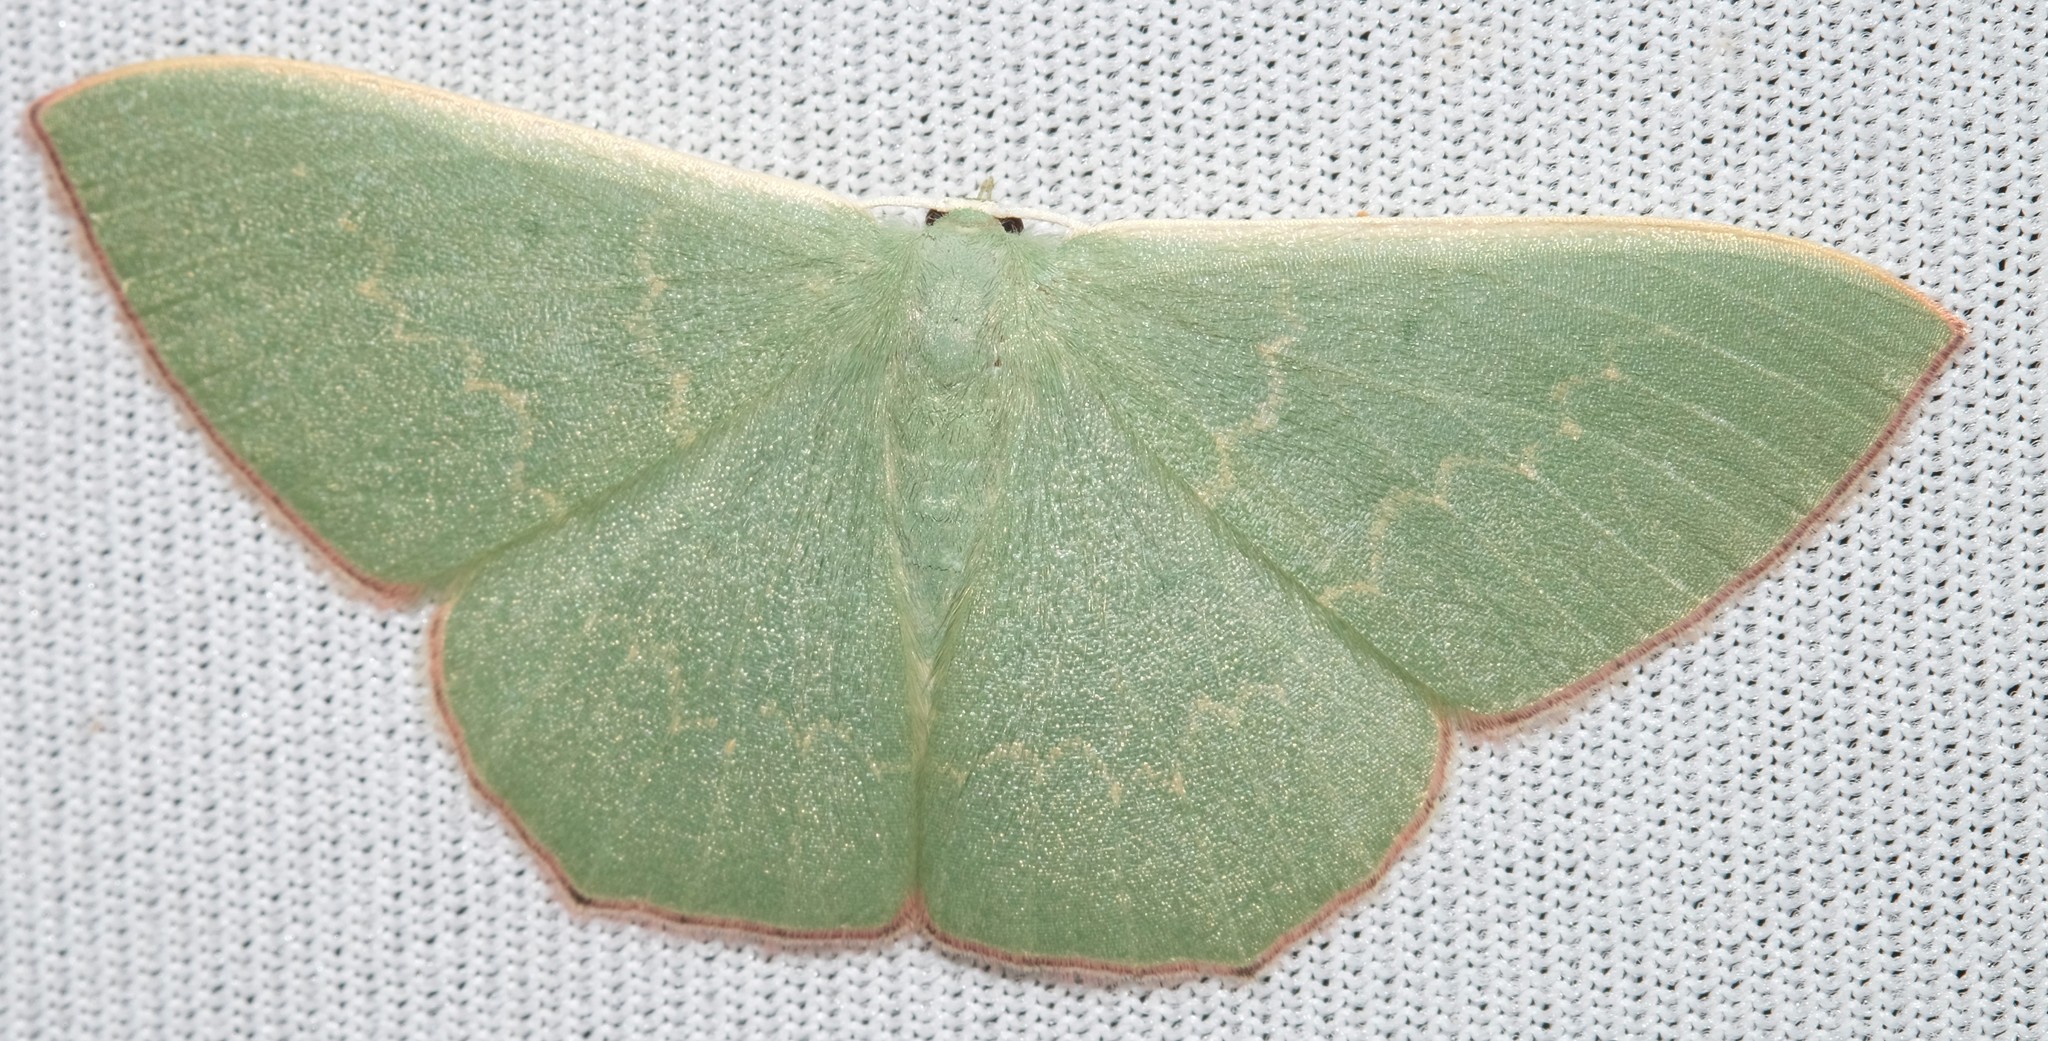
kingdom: Animalia
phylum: Arthropoda
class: Insecta
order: Lepidoptera
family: Geometridae
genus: Prasinocyma
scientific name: Prasinocyma semicrocea
